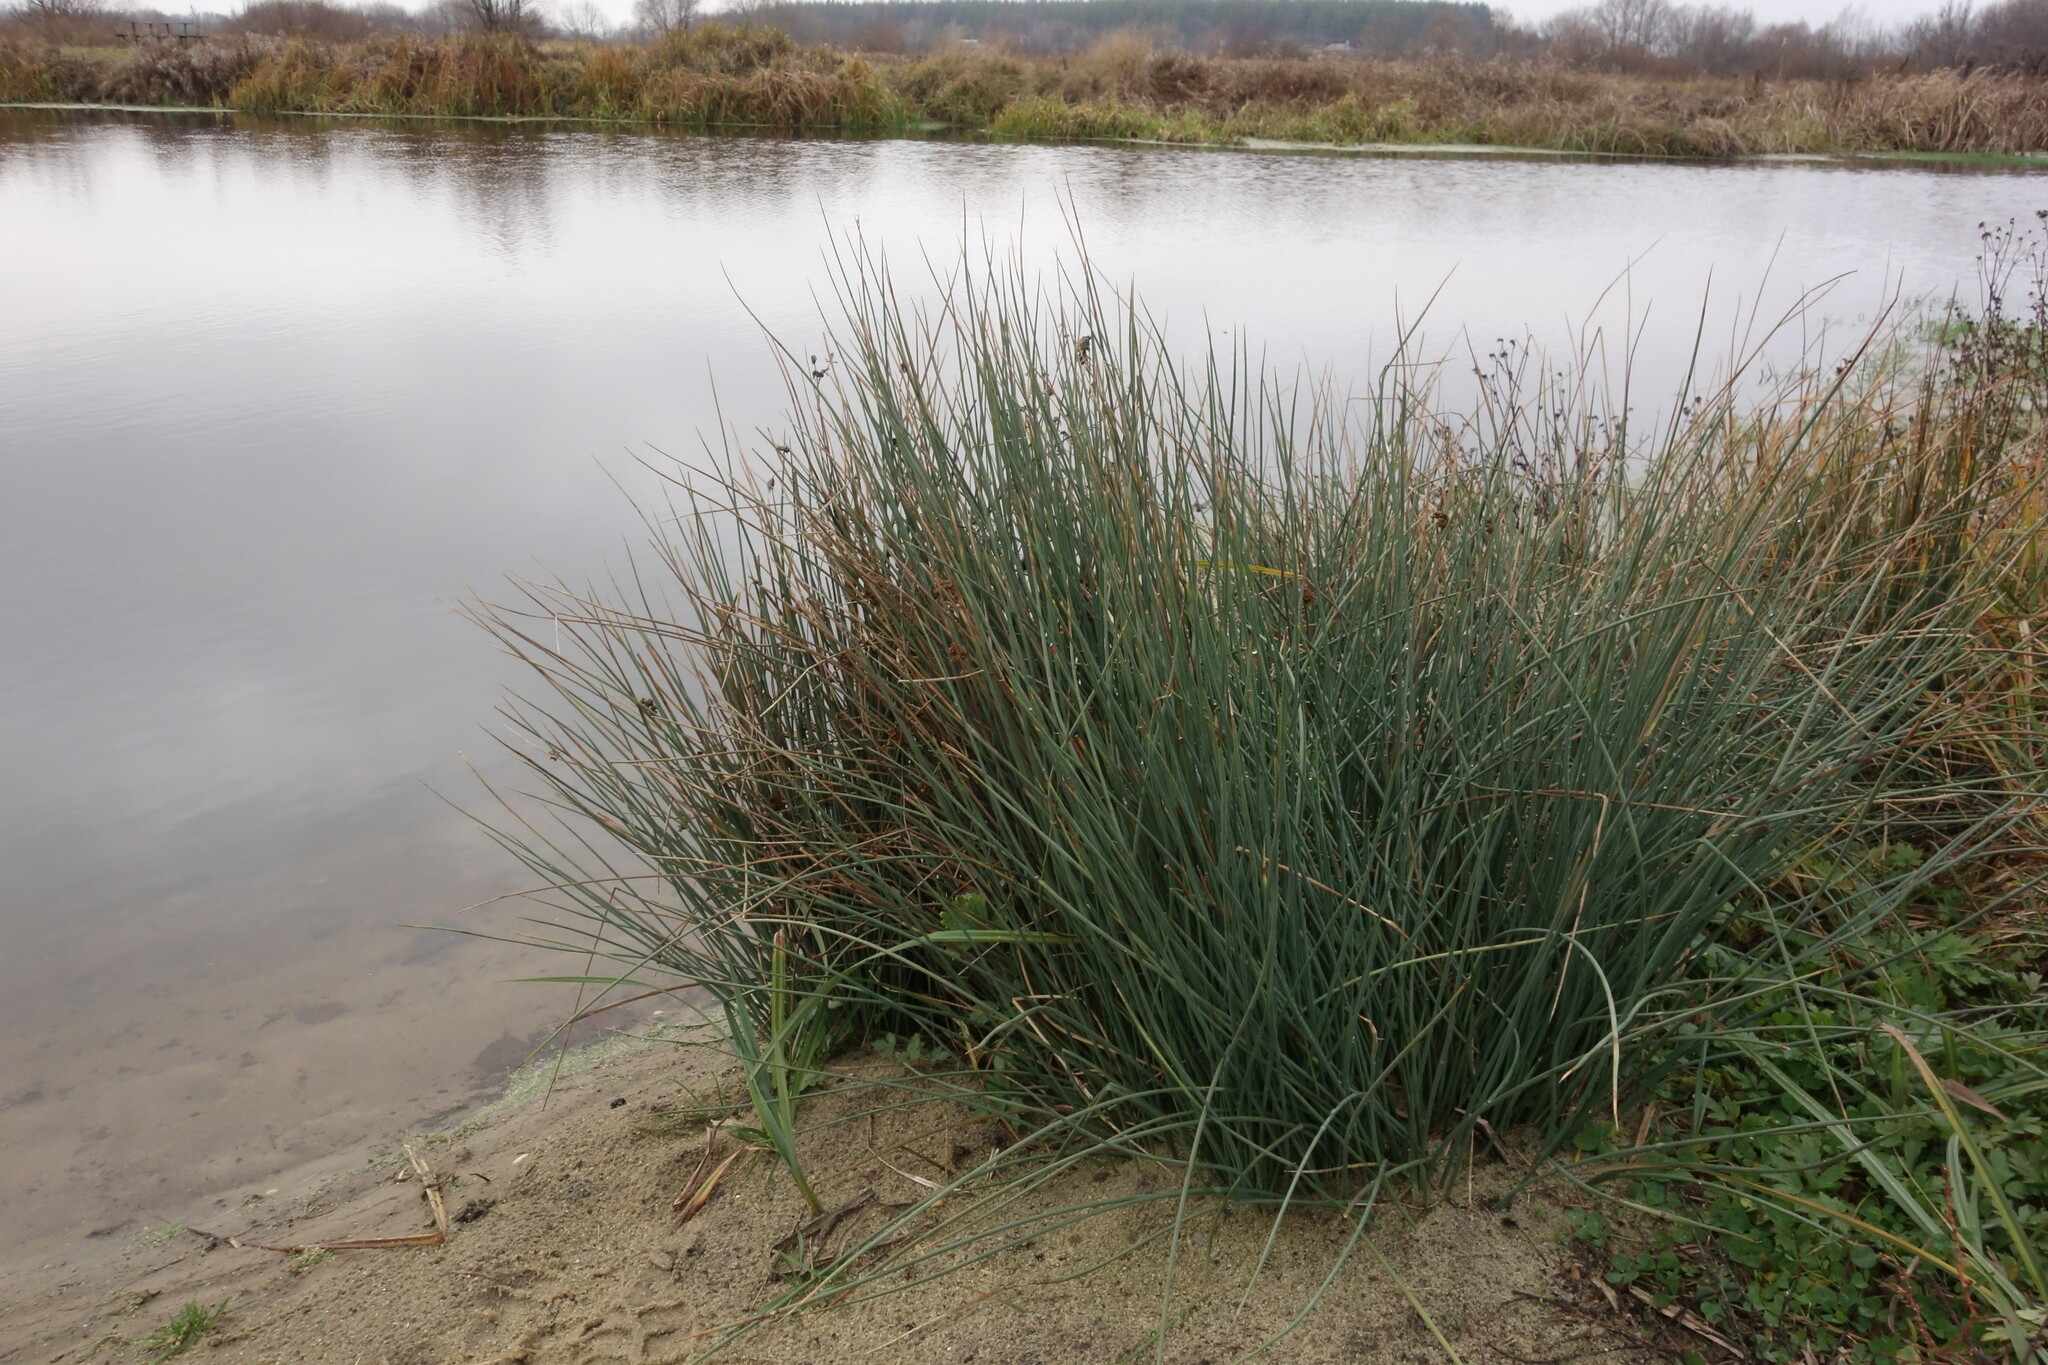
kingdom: Plantae
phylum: Tracheophyta
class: Liliopsida
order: Poales
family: Juncaceae
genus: Juncus
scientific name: Juncus inflexus
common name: Hard rush
